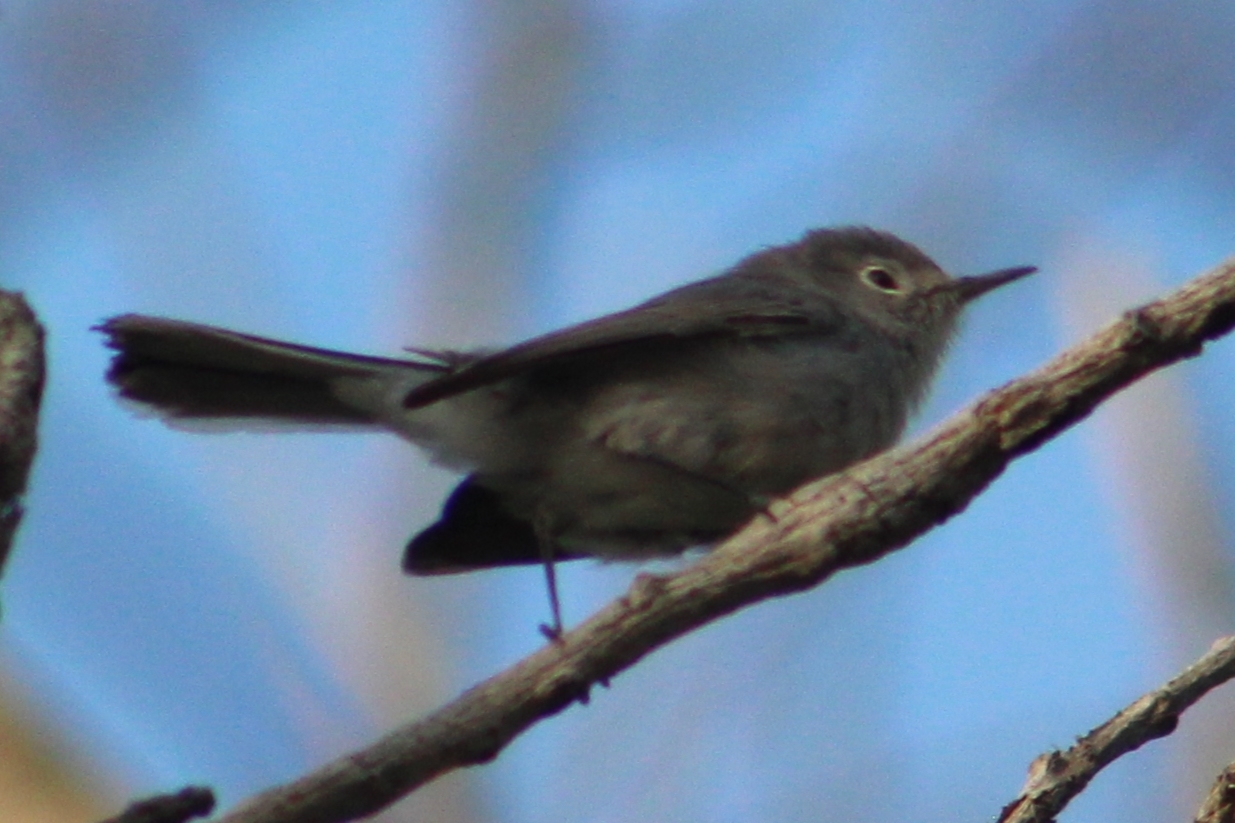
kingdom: Animalia
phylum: Chordata
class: Aves
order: Passeriformes
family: Polioptilidae
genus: Polioptila
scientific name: Polioptila caerulea
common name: Blue-gray gnatcatcher
